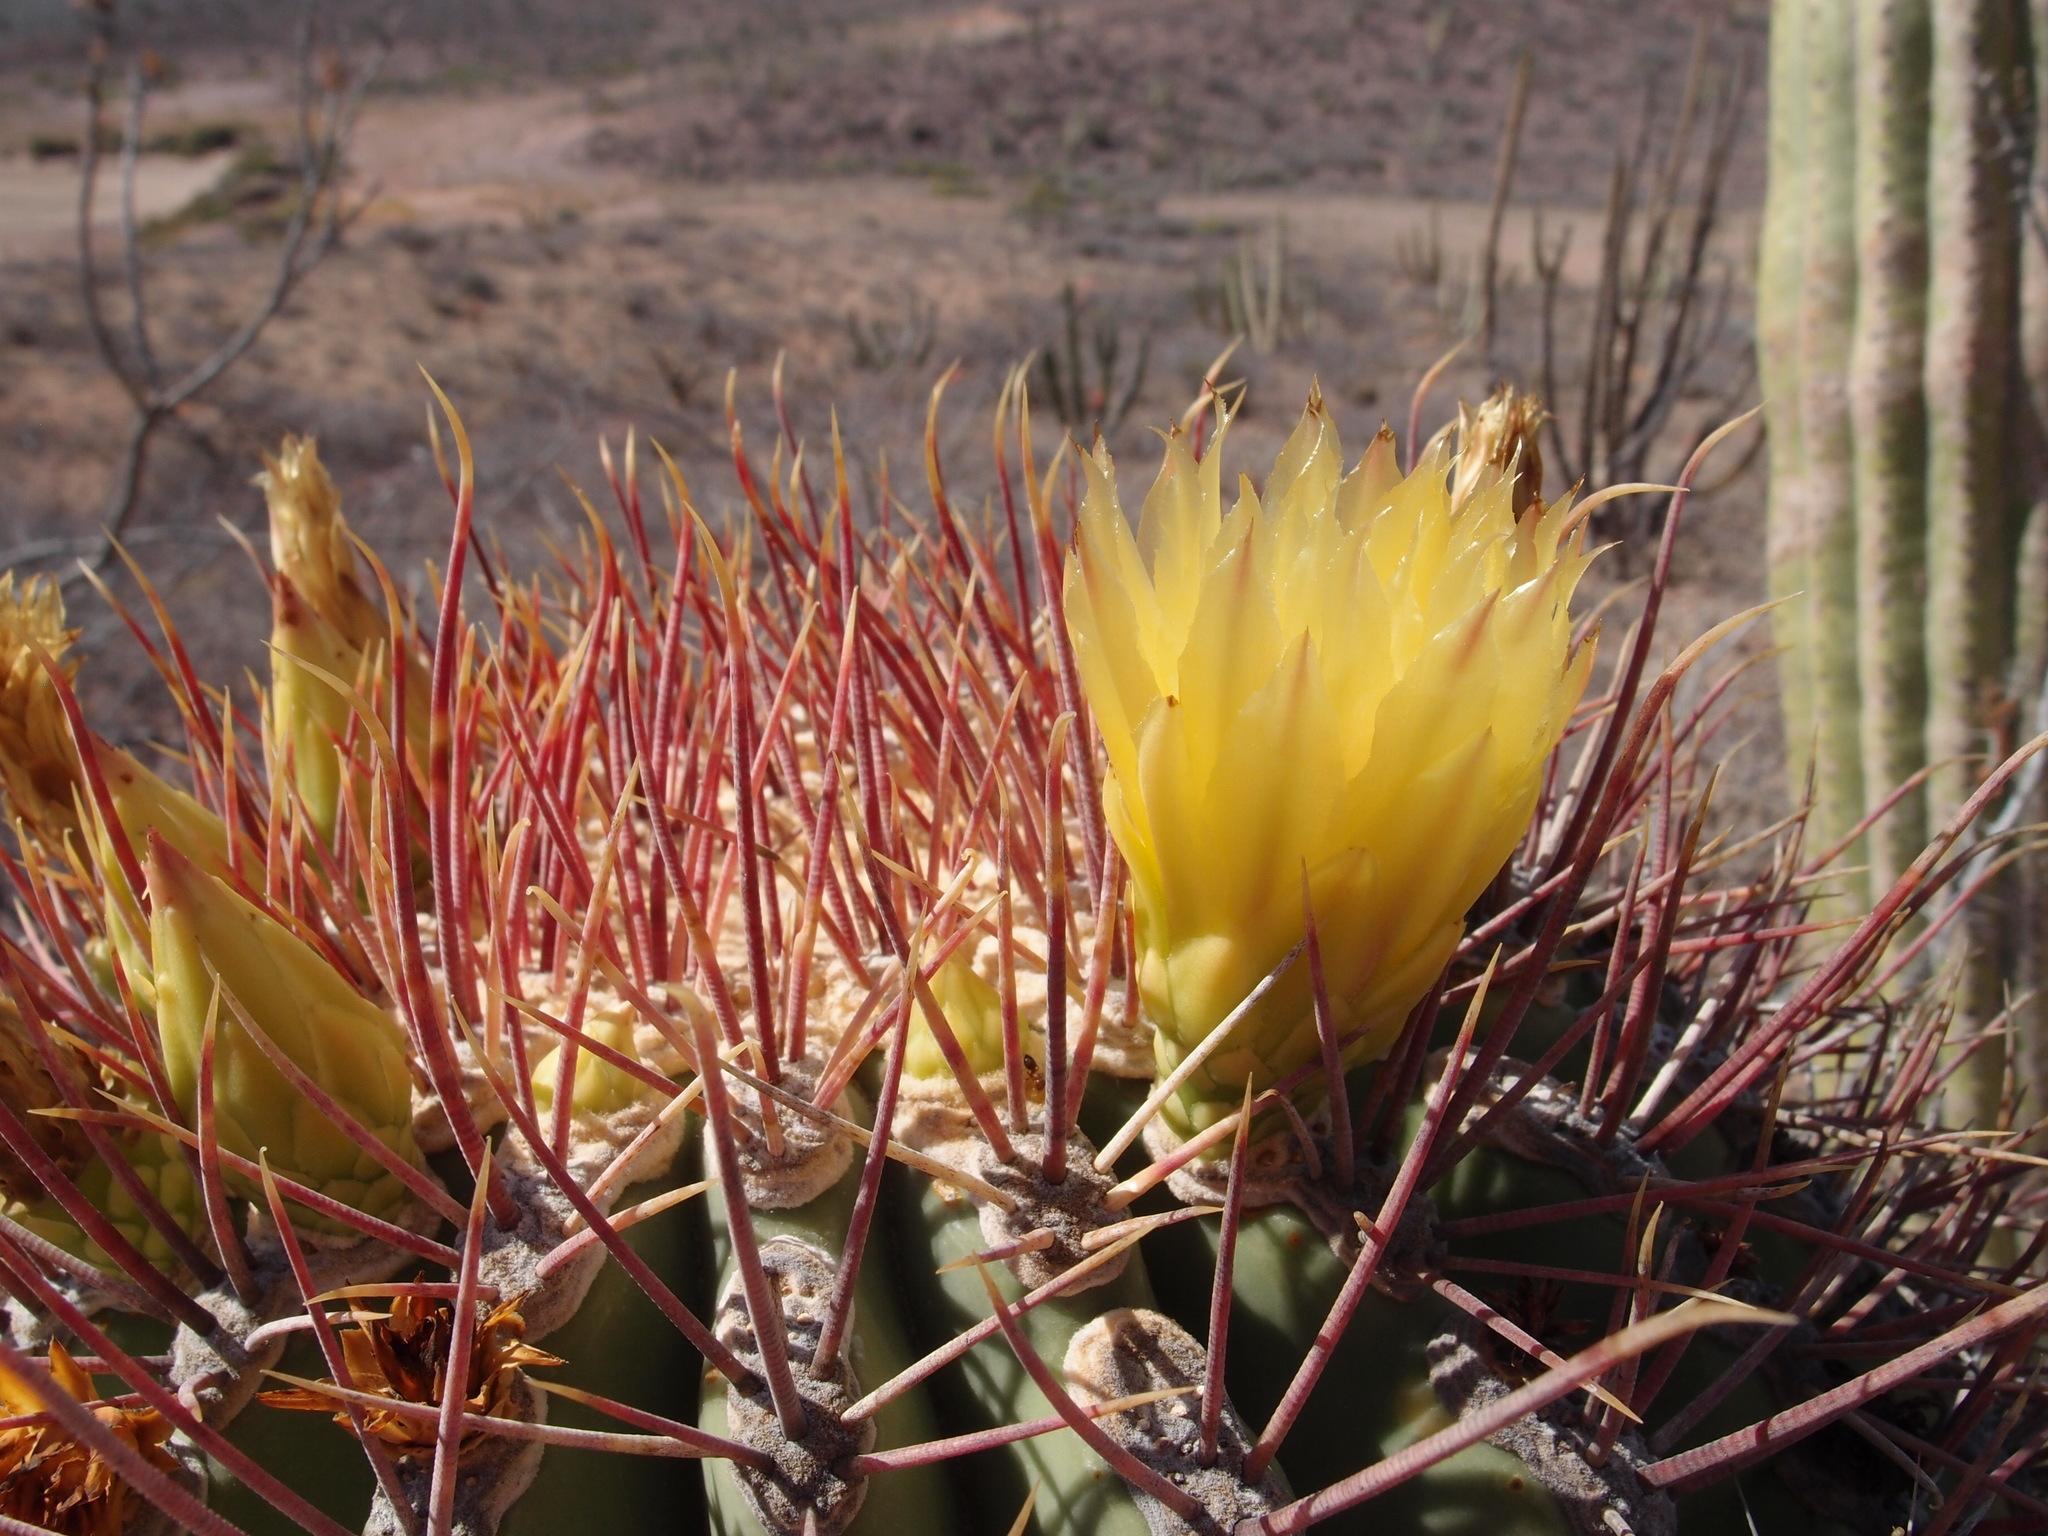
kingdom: Plantae
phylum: Tracheophyta
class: Magnoliopsida
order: Caryophyllales
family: Cactaceae
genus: Ferocactus
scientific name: Ferocactus emoryi
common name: Emory's barrel cactus
